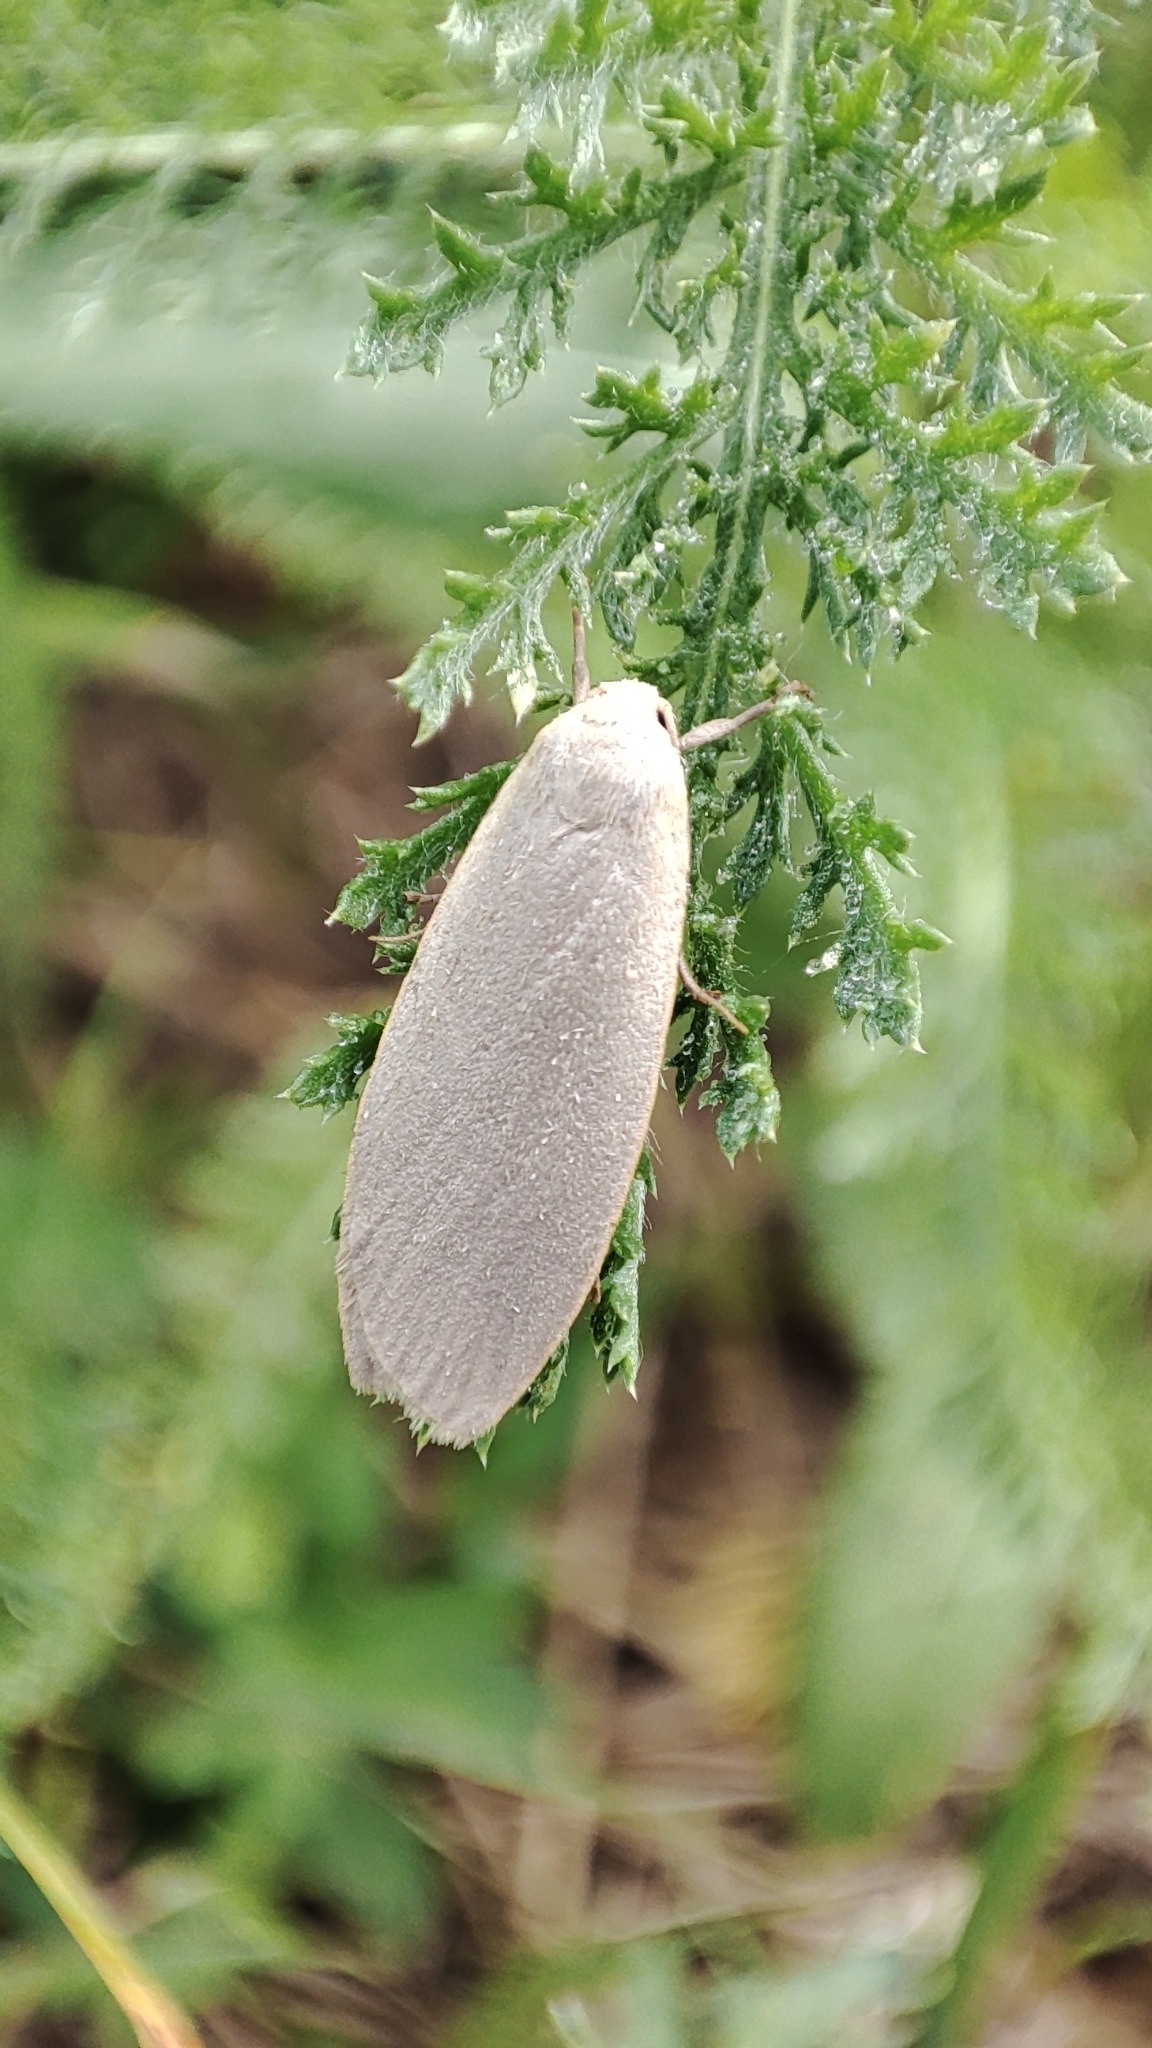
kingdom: Animalia
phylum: Arthropoda
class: Insecta
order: Lepidoptera
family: Erebidae
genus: Collita
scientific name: Collita griseola
